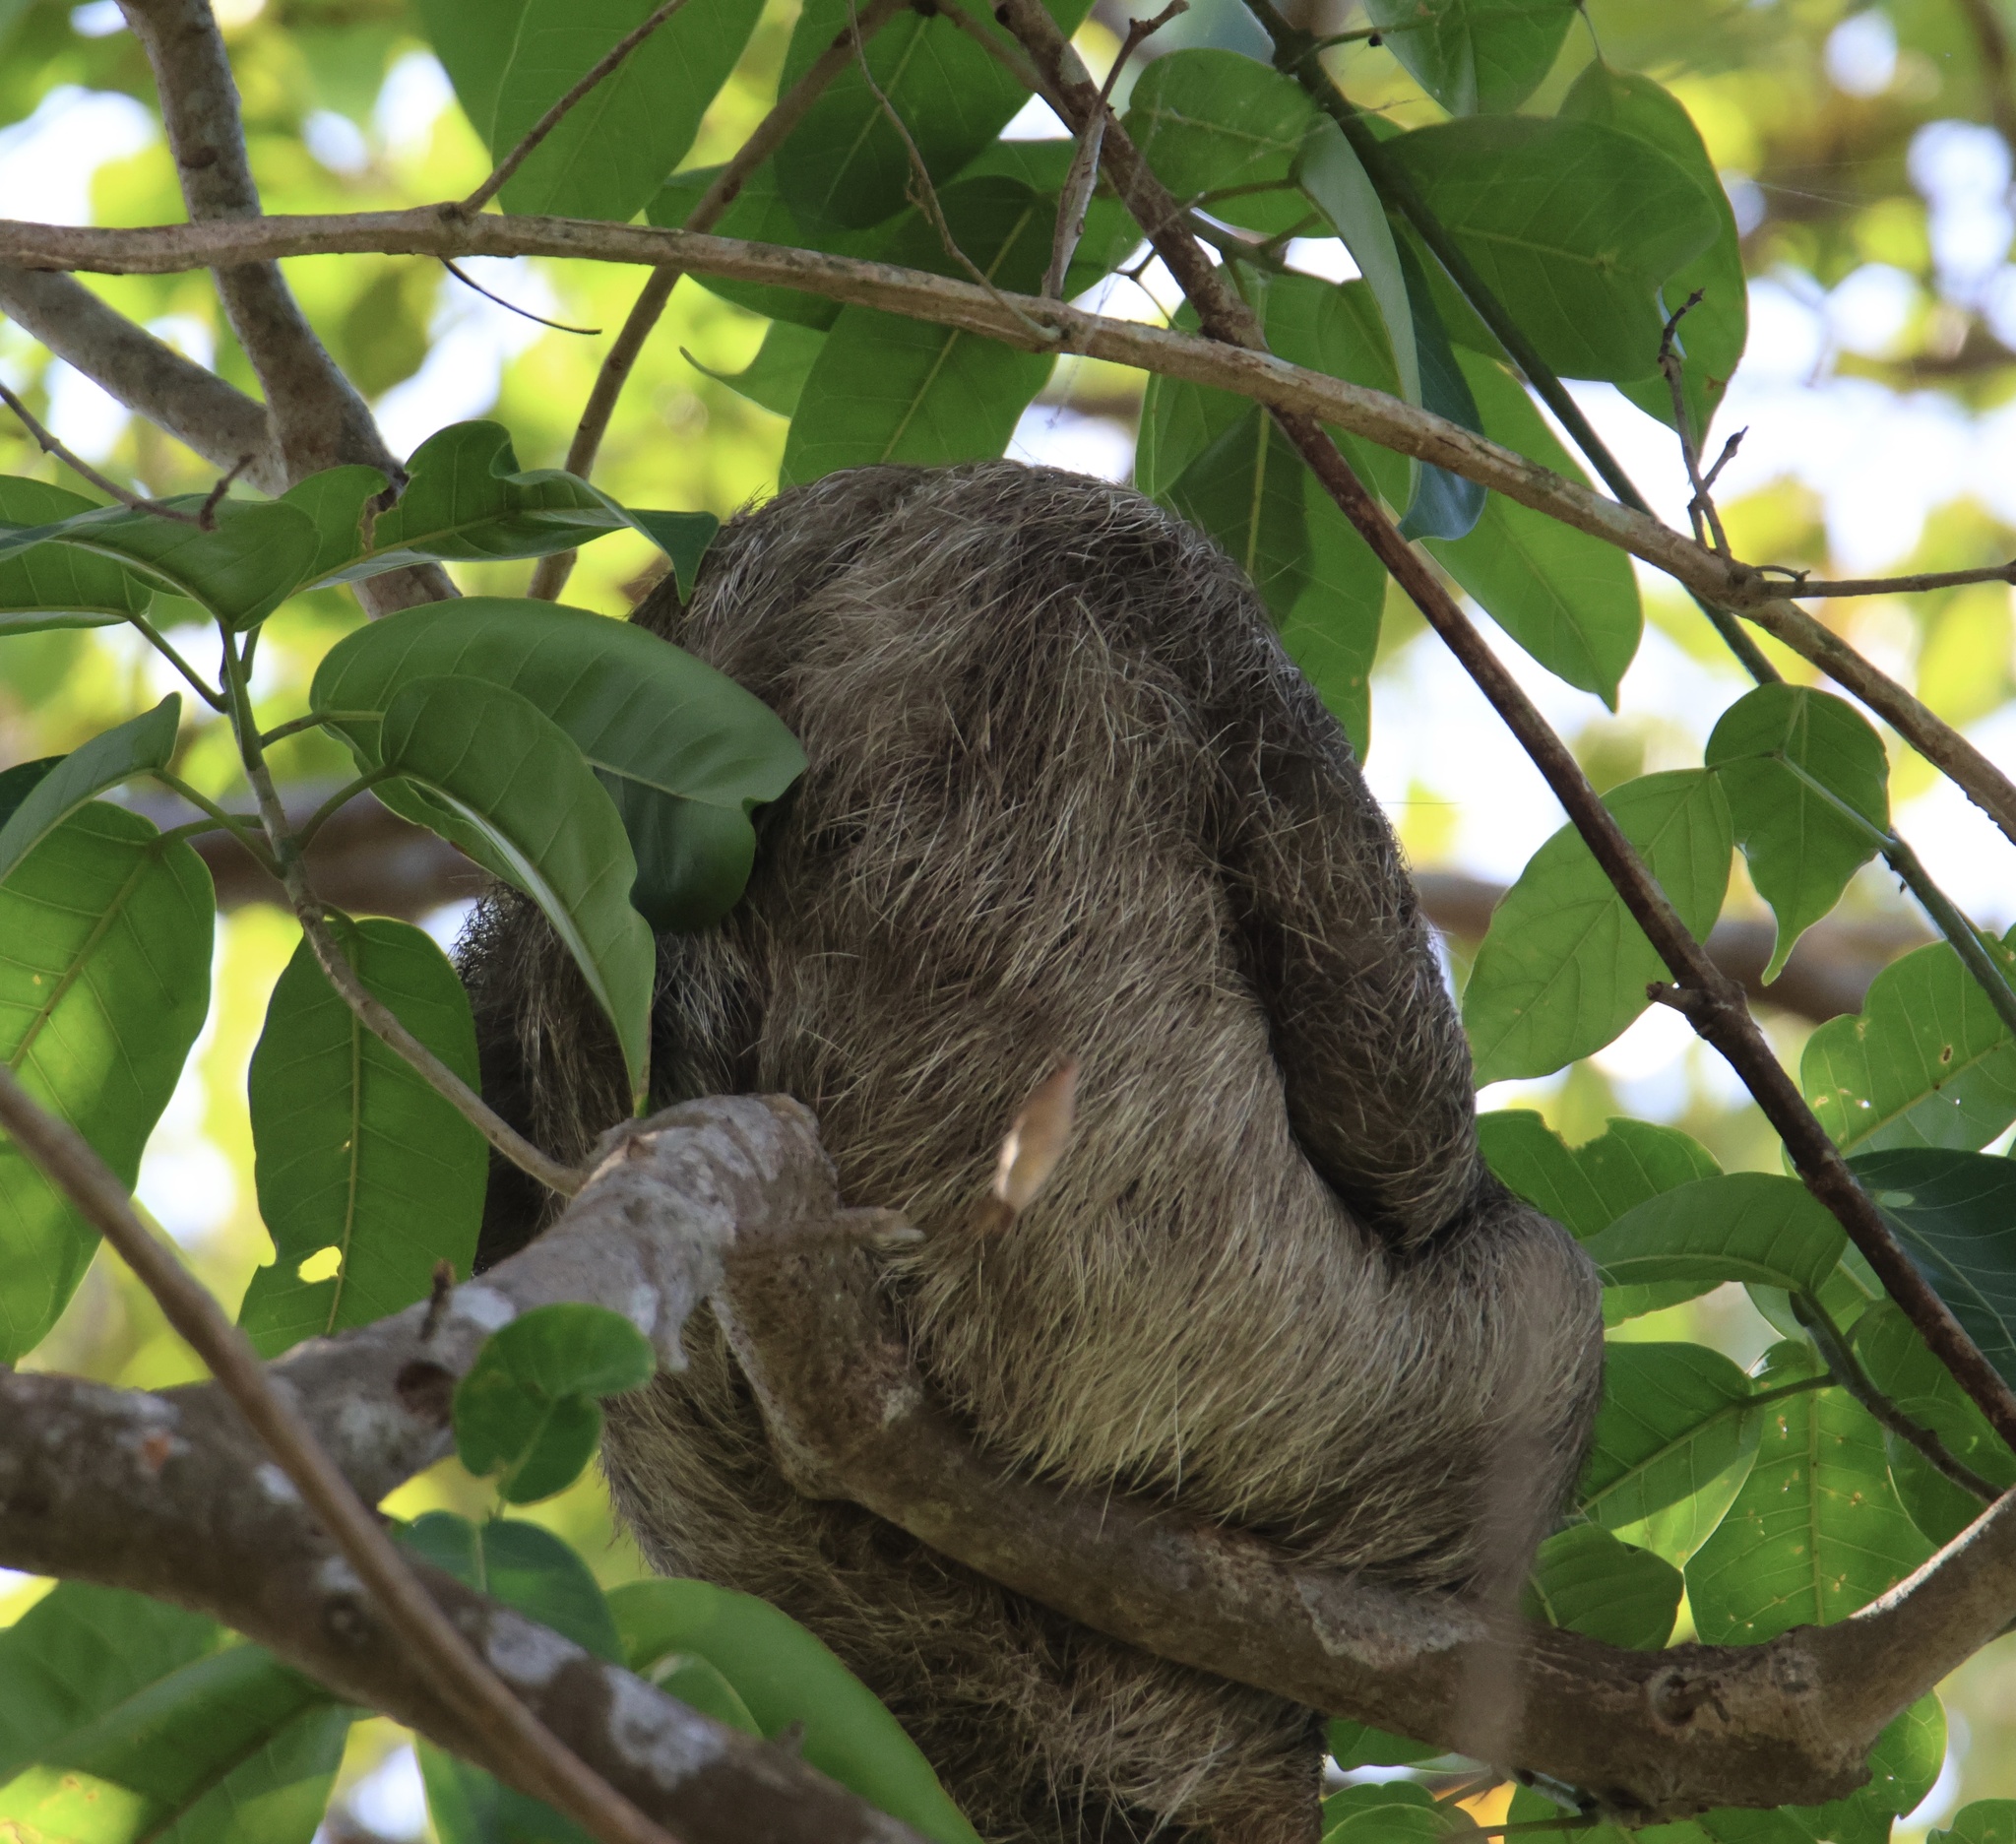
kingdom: Animalia
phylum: Chordata
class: Mammalia
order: Pilosa
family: Bradypodidae
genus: Bradypus
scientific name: Bradypus variegatus
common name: Brown-throated three-toed sloth
